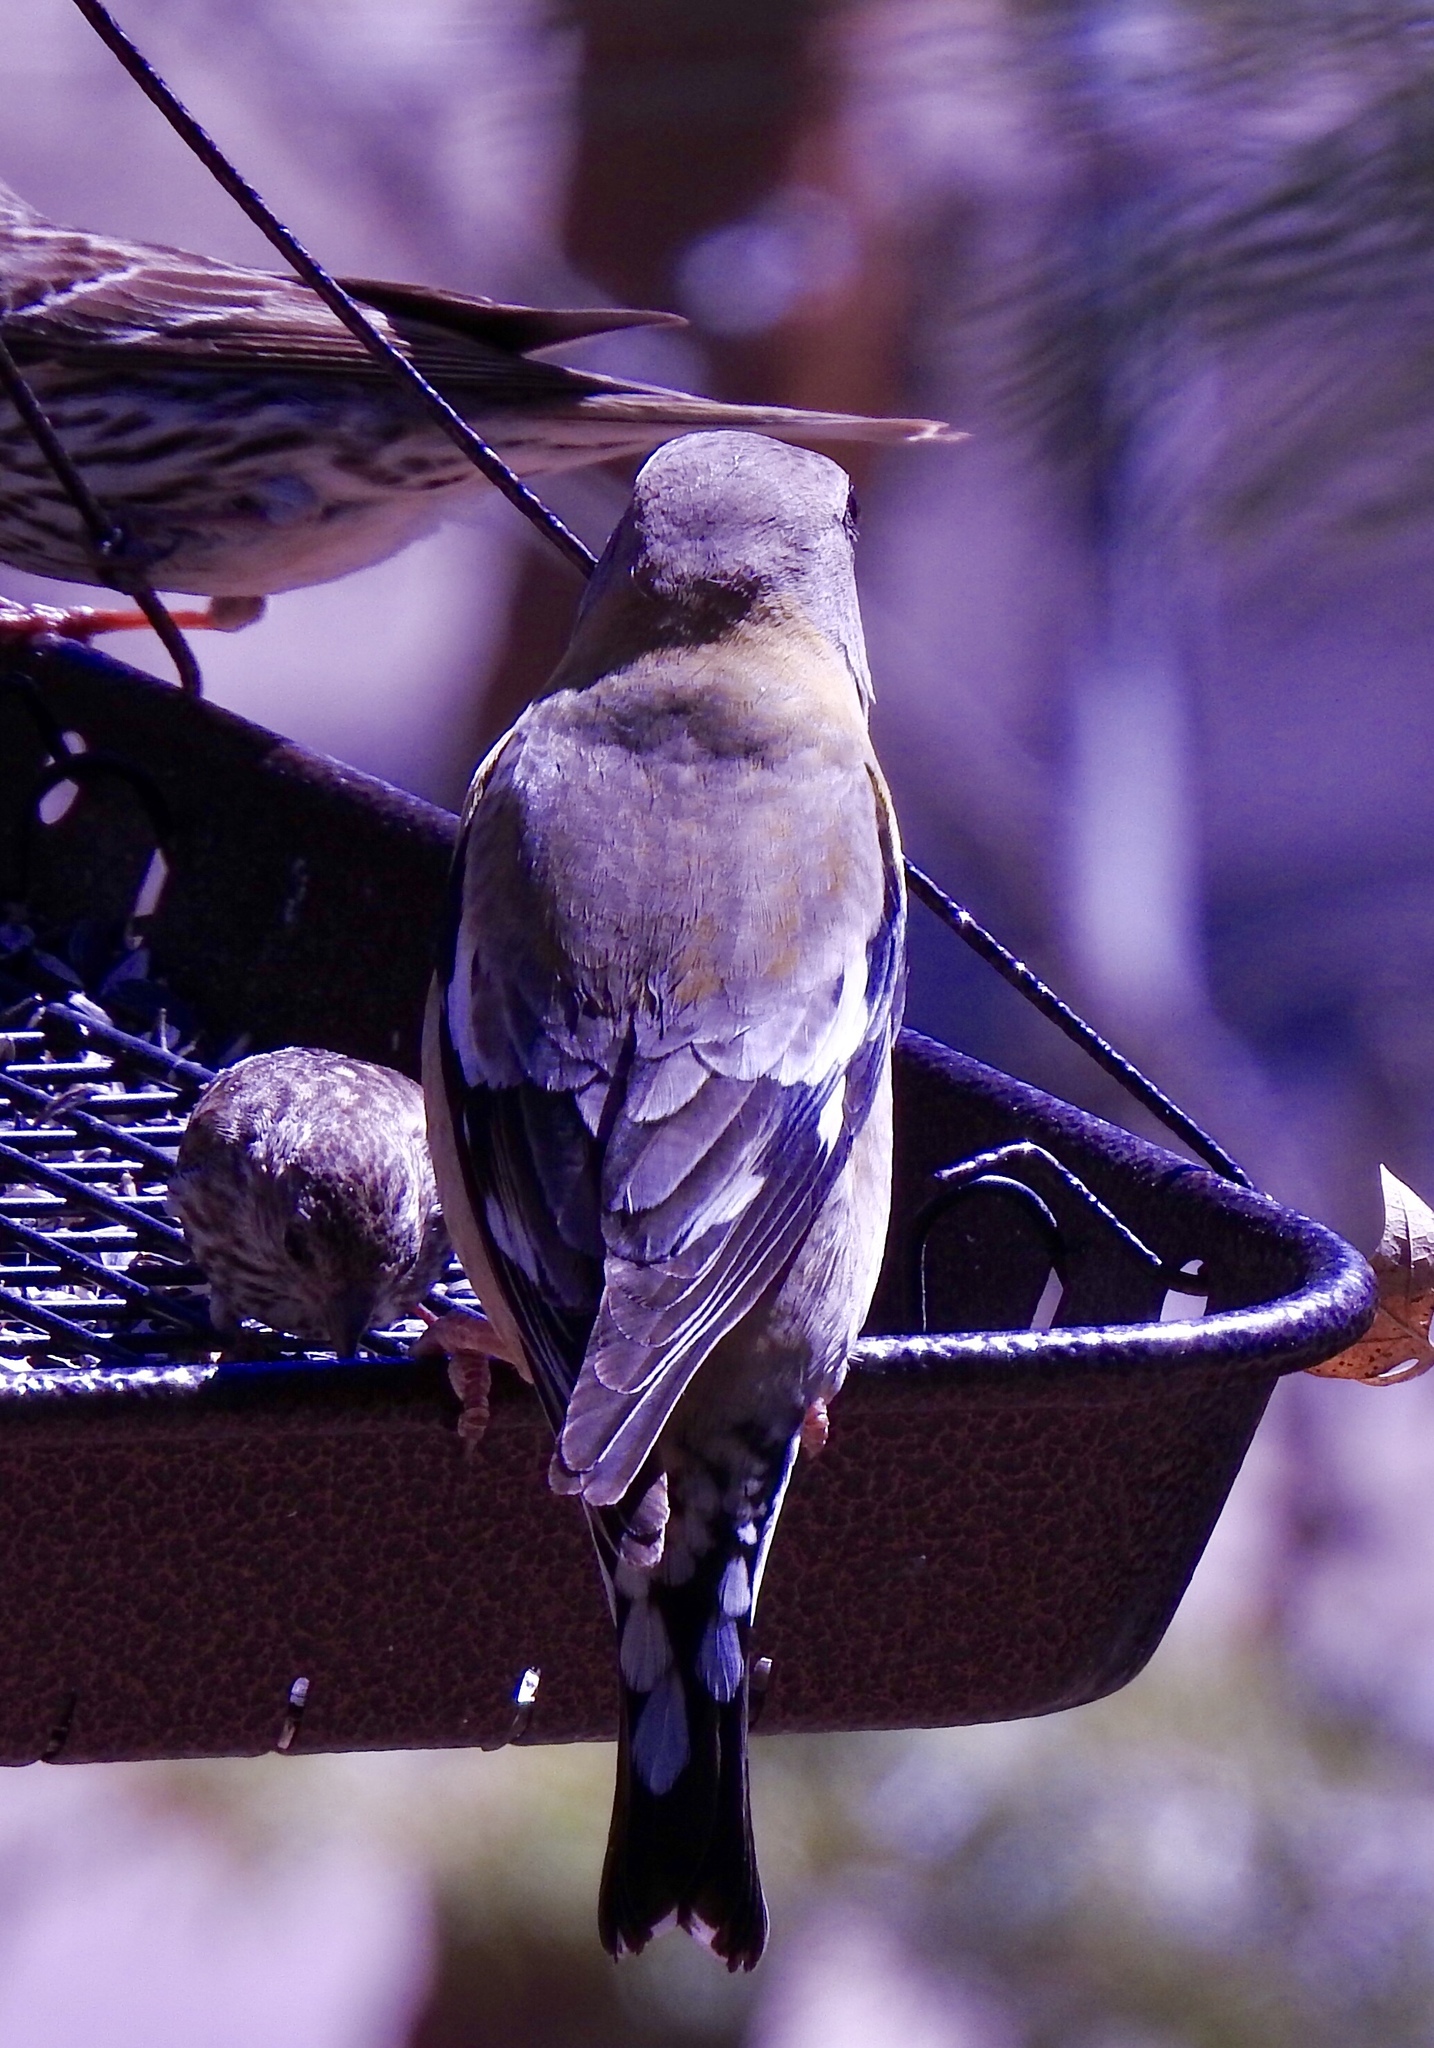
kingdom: Animalia
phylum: Chordata
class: Aves
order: Passeriformes
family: Fringillidae
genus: Hesperiphona
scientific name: Hesperiphona vespertina
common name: Evening grosbeak
